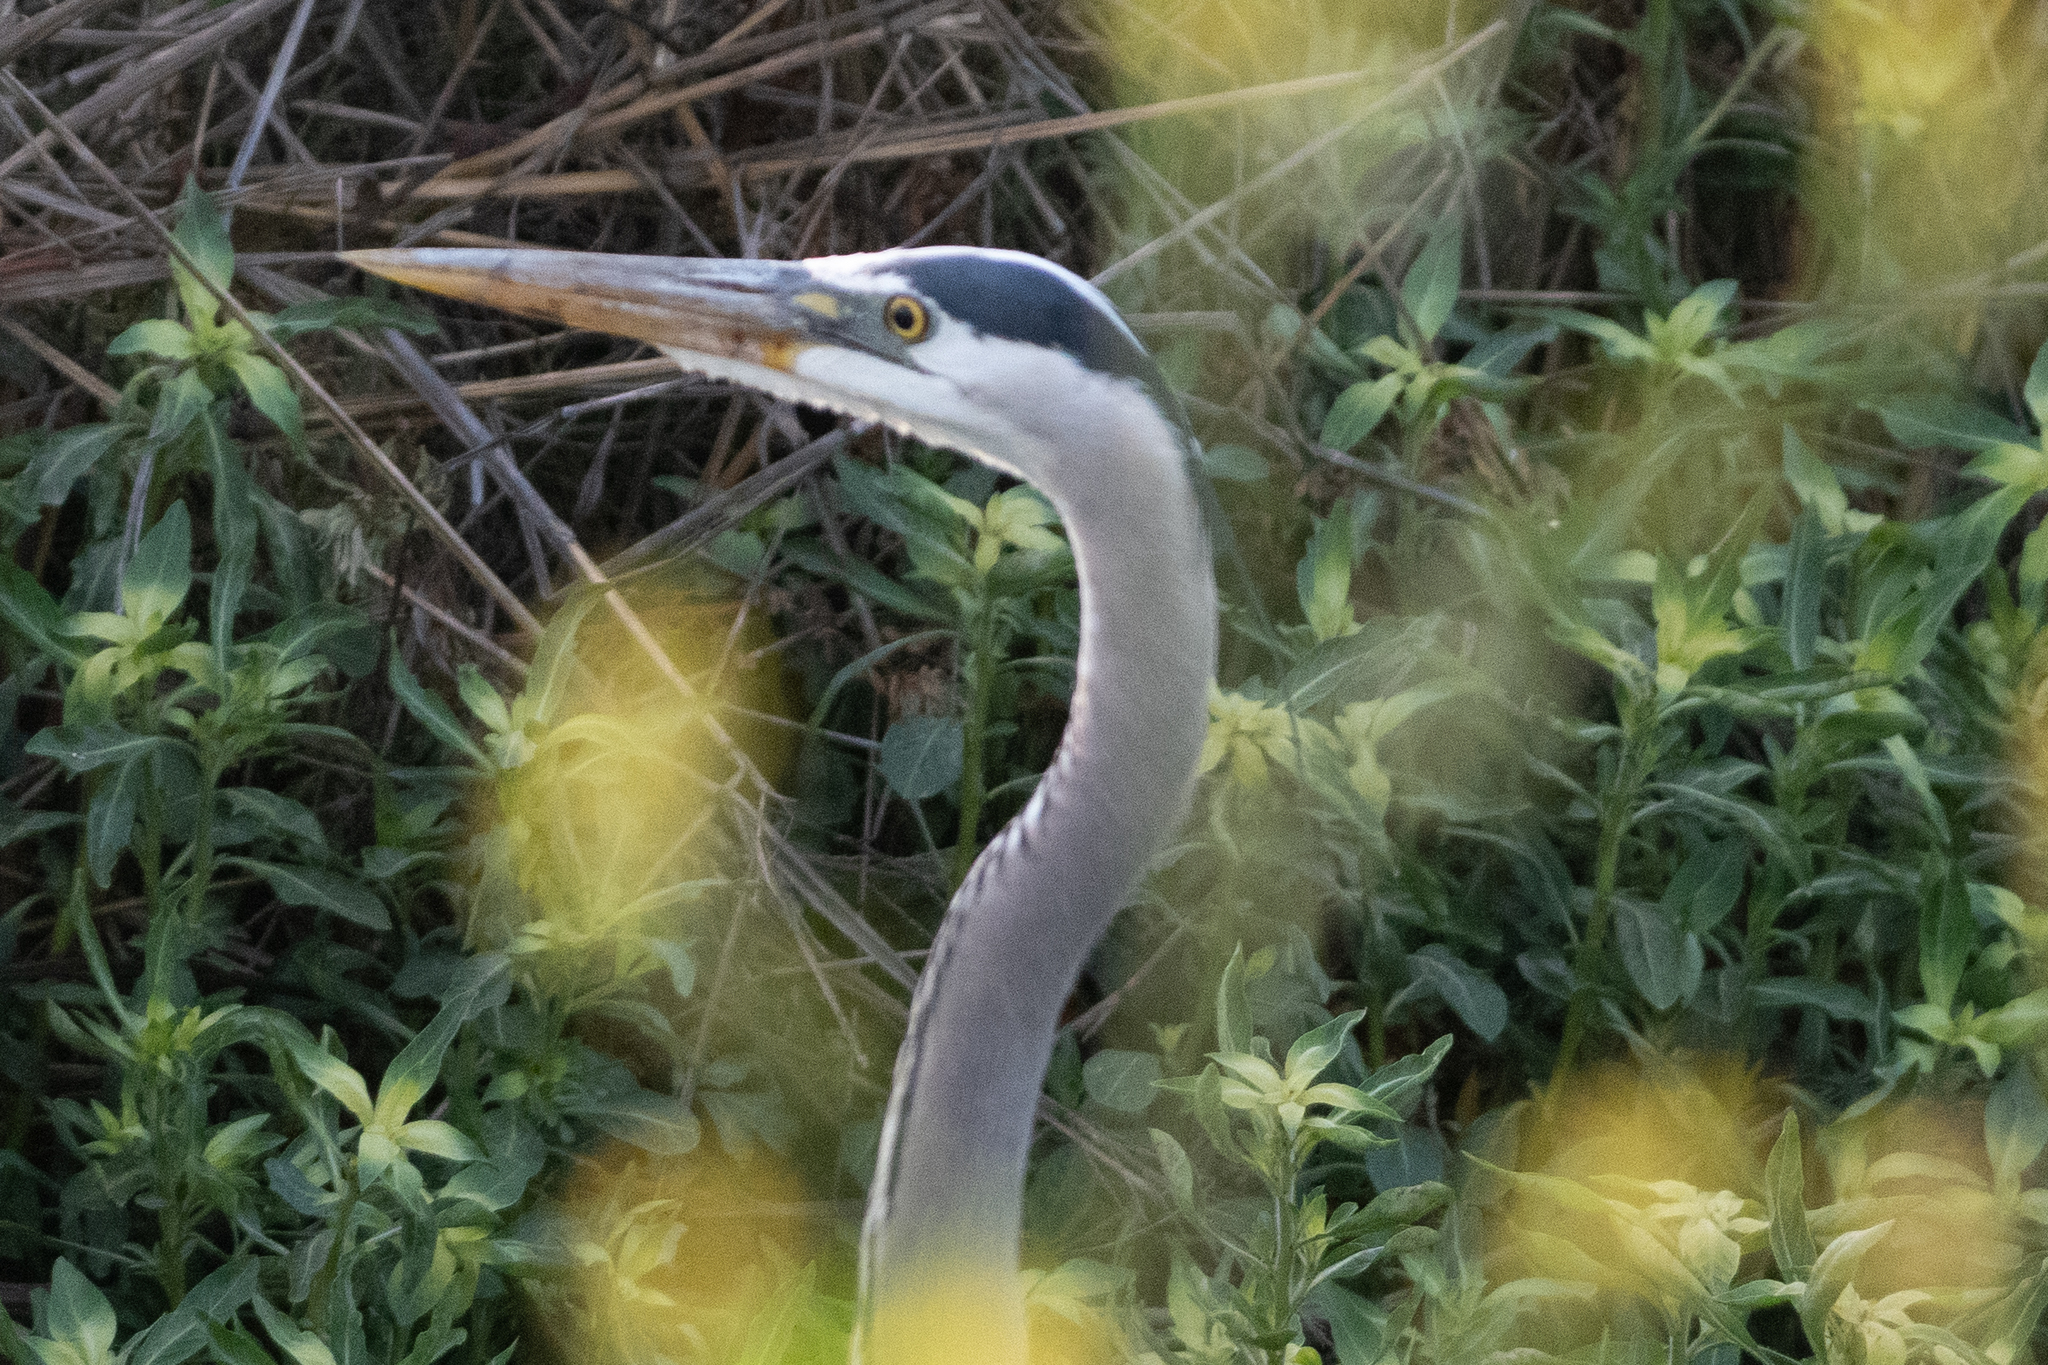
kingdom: Animalia
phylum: Chordata
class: Aves
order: Pelecaniformes
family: Ardeidae
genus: Ardea
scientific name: Ardea herodias
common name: Great blue heron
